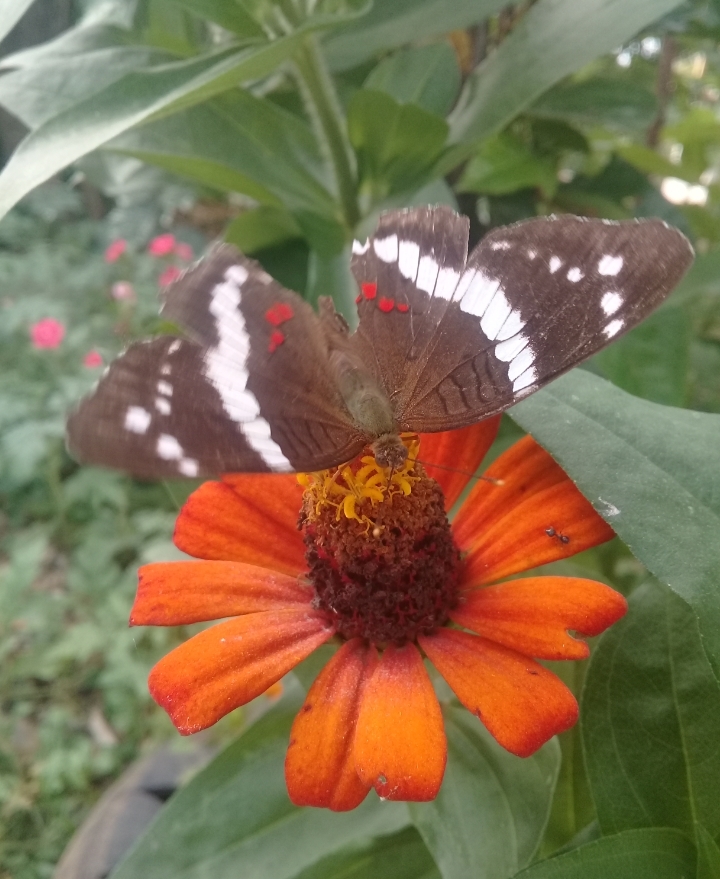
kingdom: Animalia
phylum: Arthropoda
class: Insecta
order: Lepidoptera
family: Nymphalidae
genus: Anartia
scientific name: Anartia fatima
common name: Banded peacock
